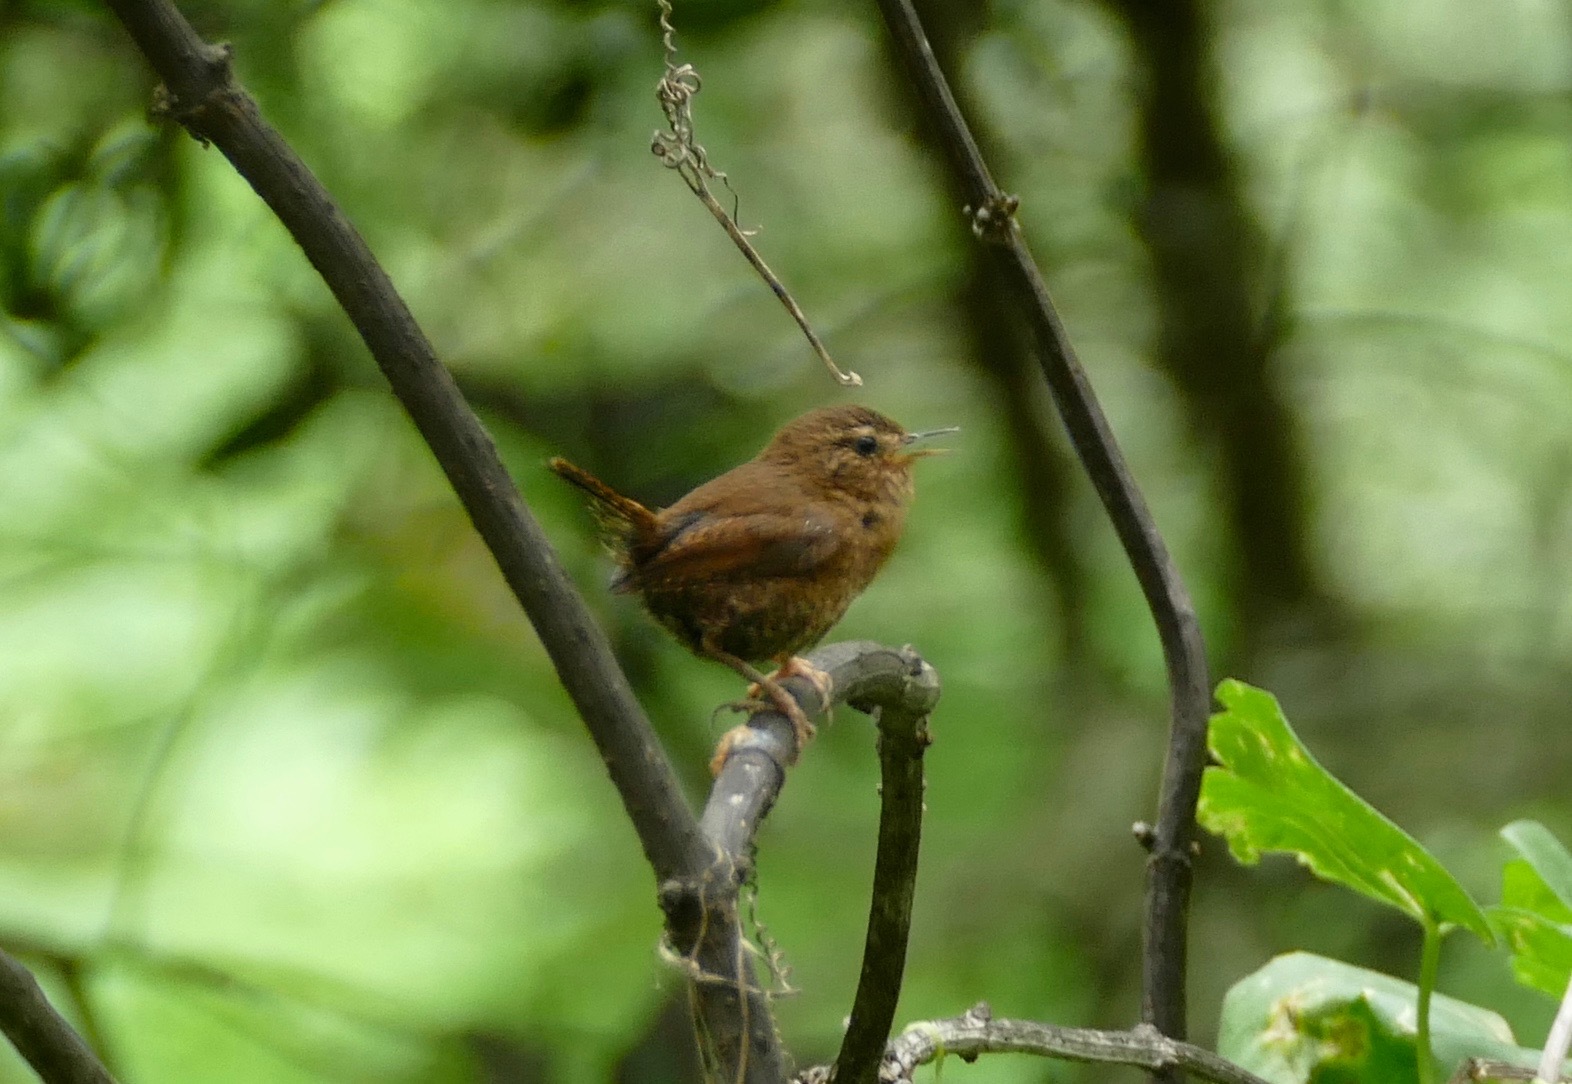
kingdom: Animalia
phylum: Chordata
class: Aves
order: Passeriformes
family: Troglodytidae
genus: Troglodytes
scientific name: Troglodytes pacificus
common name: Pacific wren
